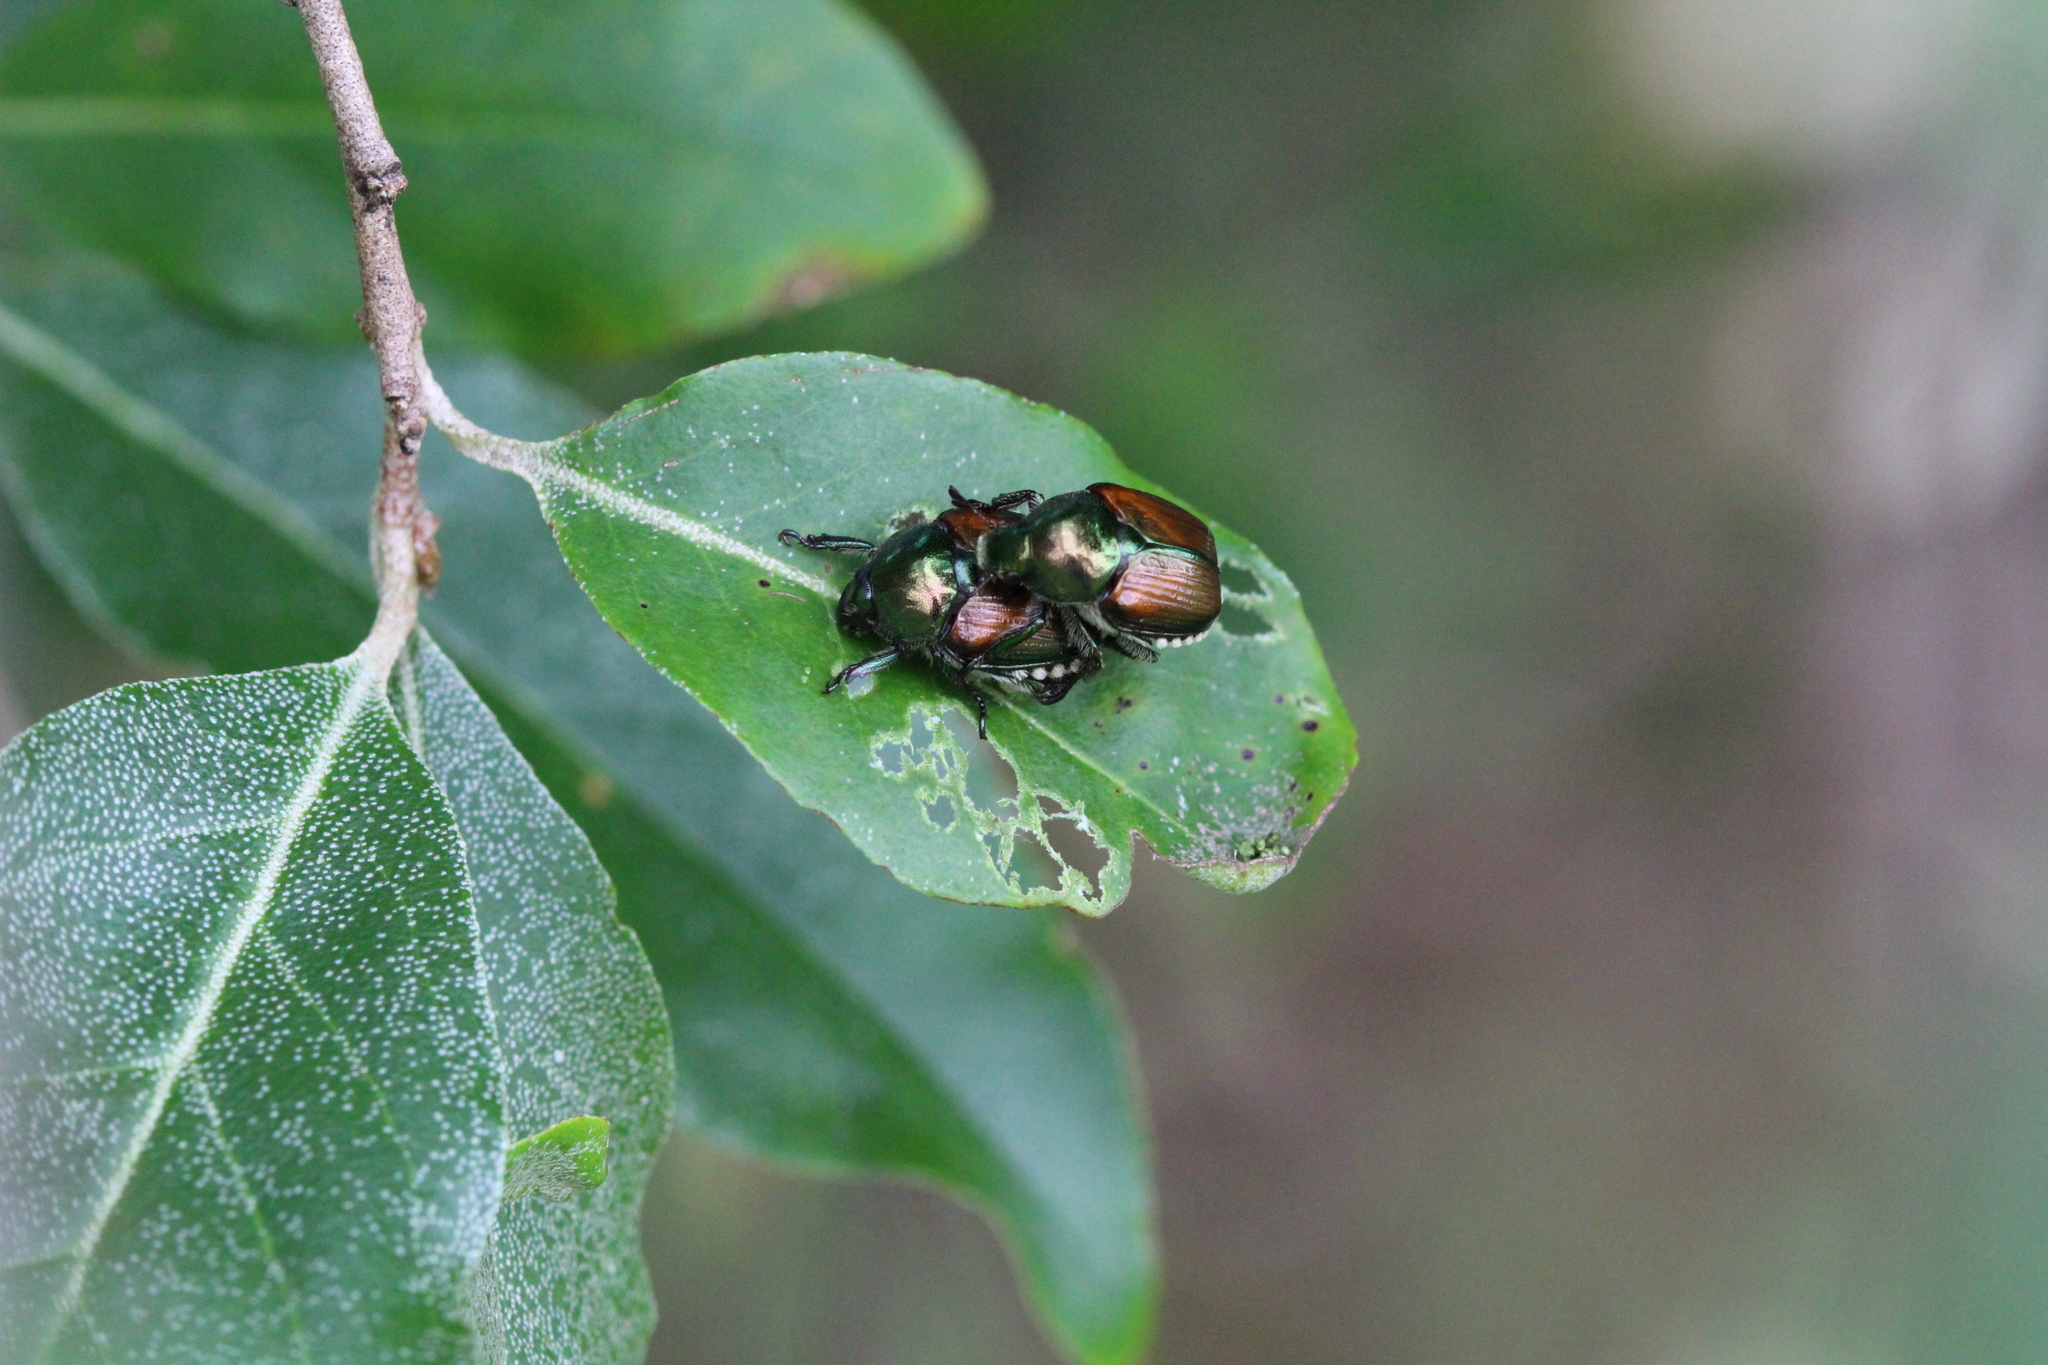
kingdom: Animalia
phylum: Arthropoda
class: Insecta
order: Coleoptera
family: Scarabaeidae
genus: Popillia
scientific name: Popillia japonica
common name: Japanese beetle
